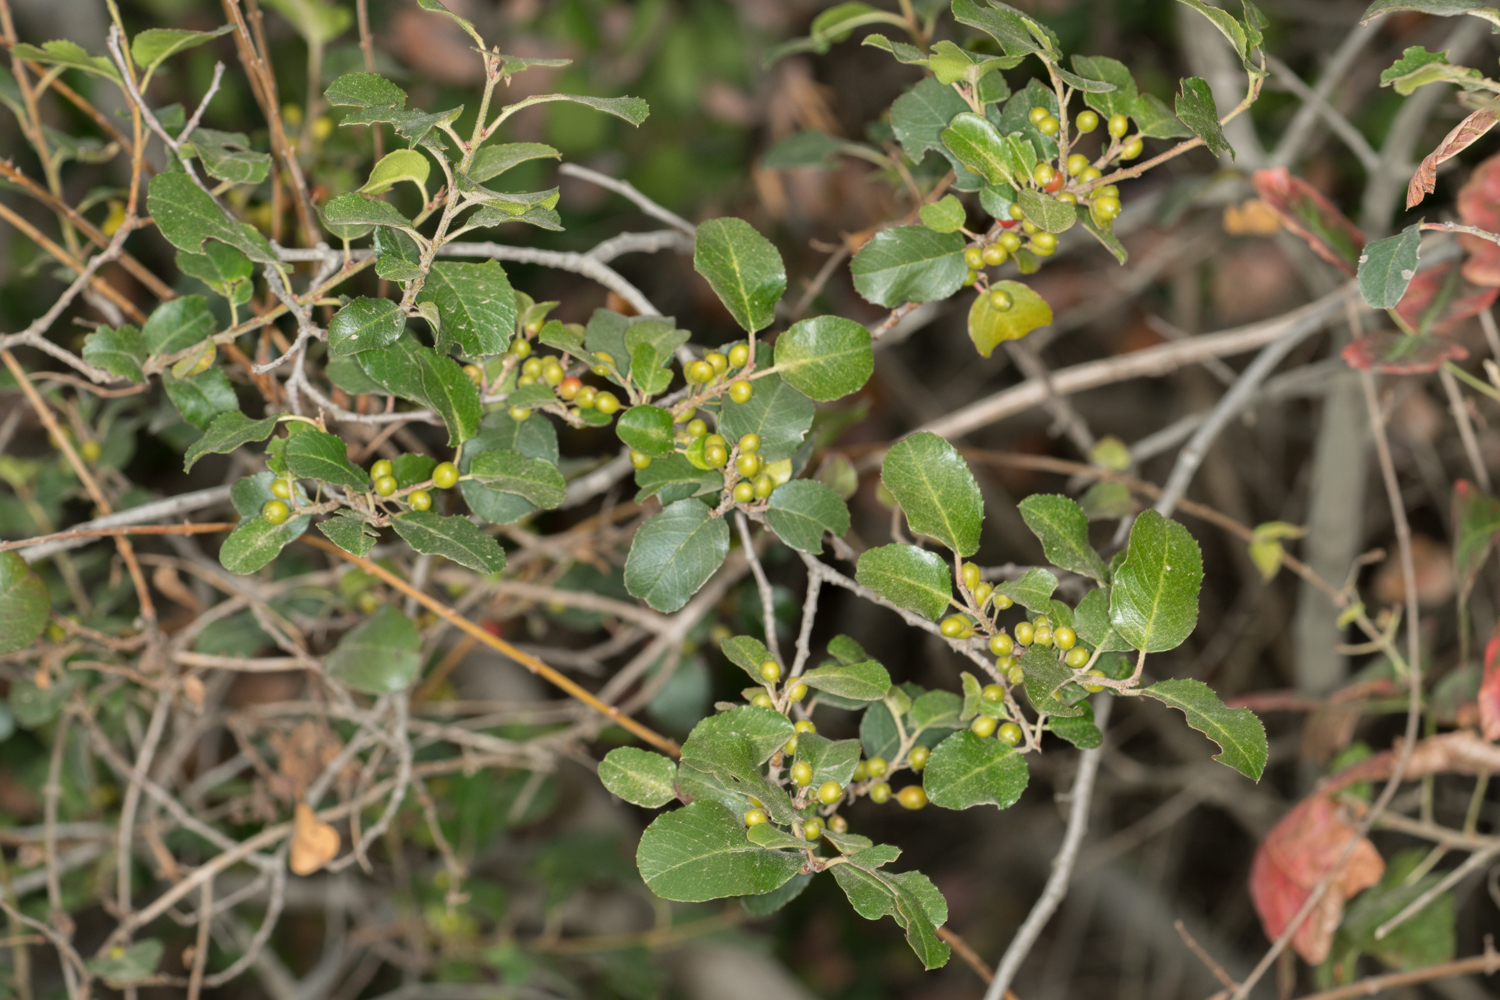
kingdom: Plantae
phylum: Tracheophyta
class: Magnoliopsida
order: Rosales
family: Rhamnaceae
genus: Endotropis
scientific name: Endotropis crocea
